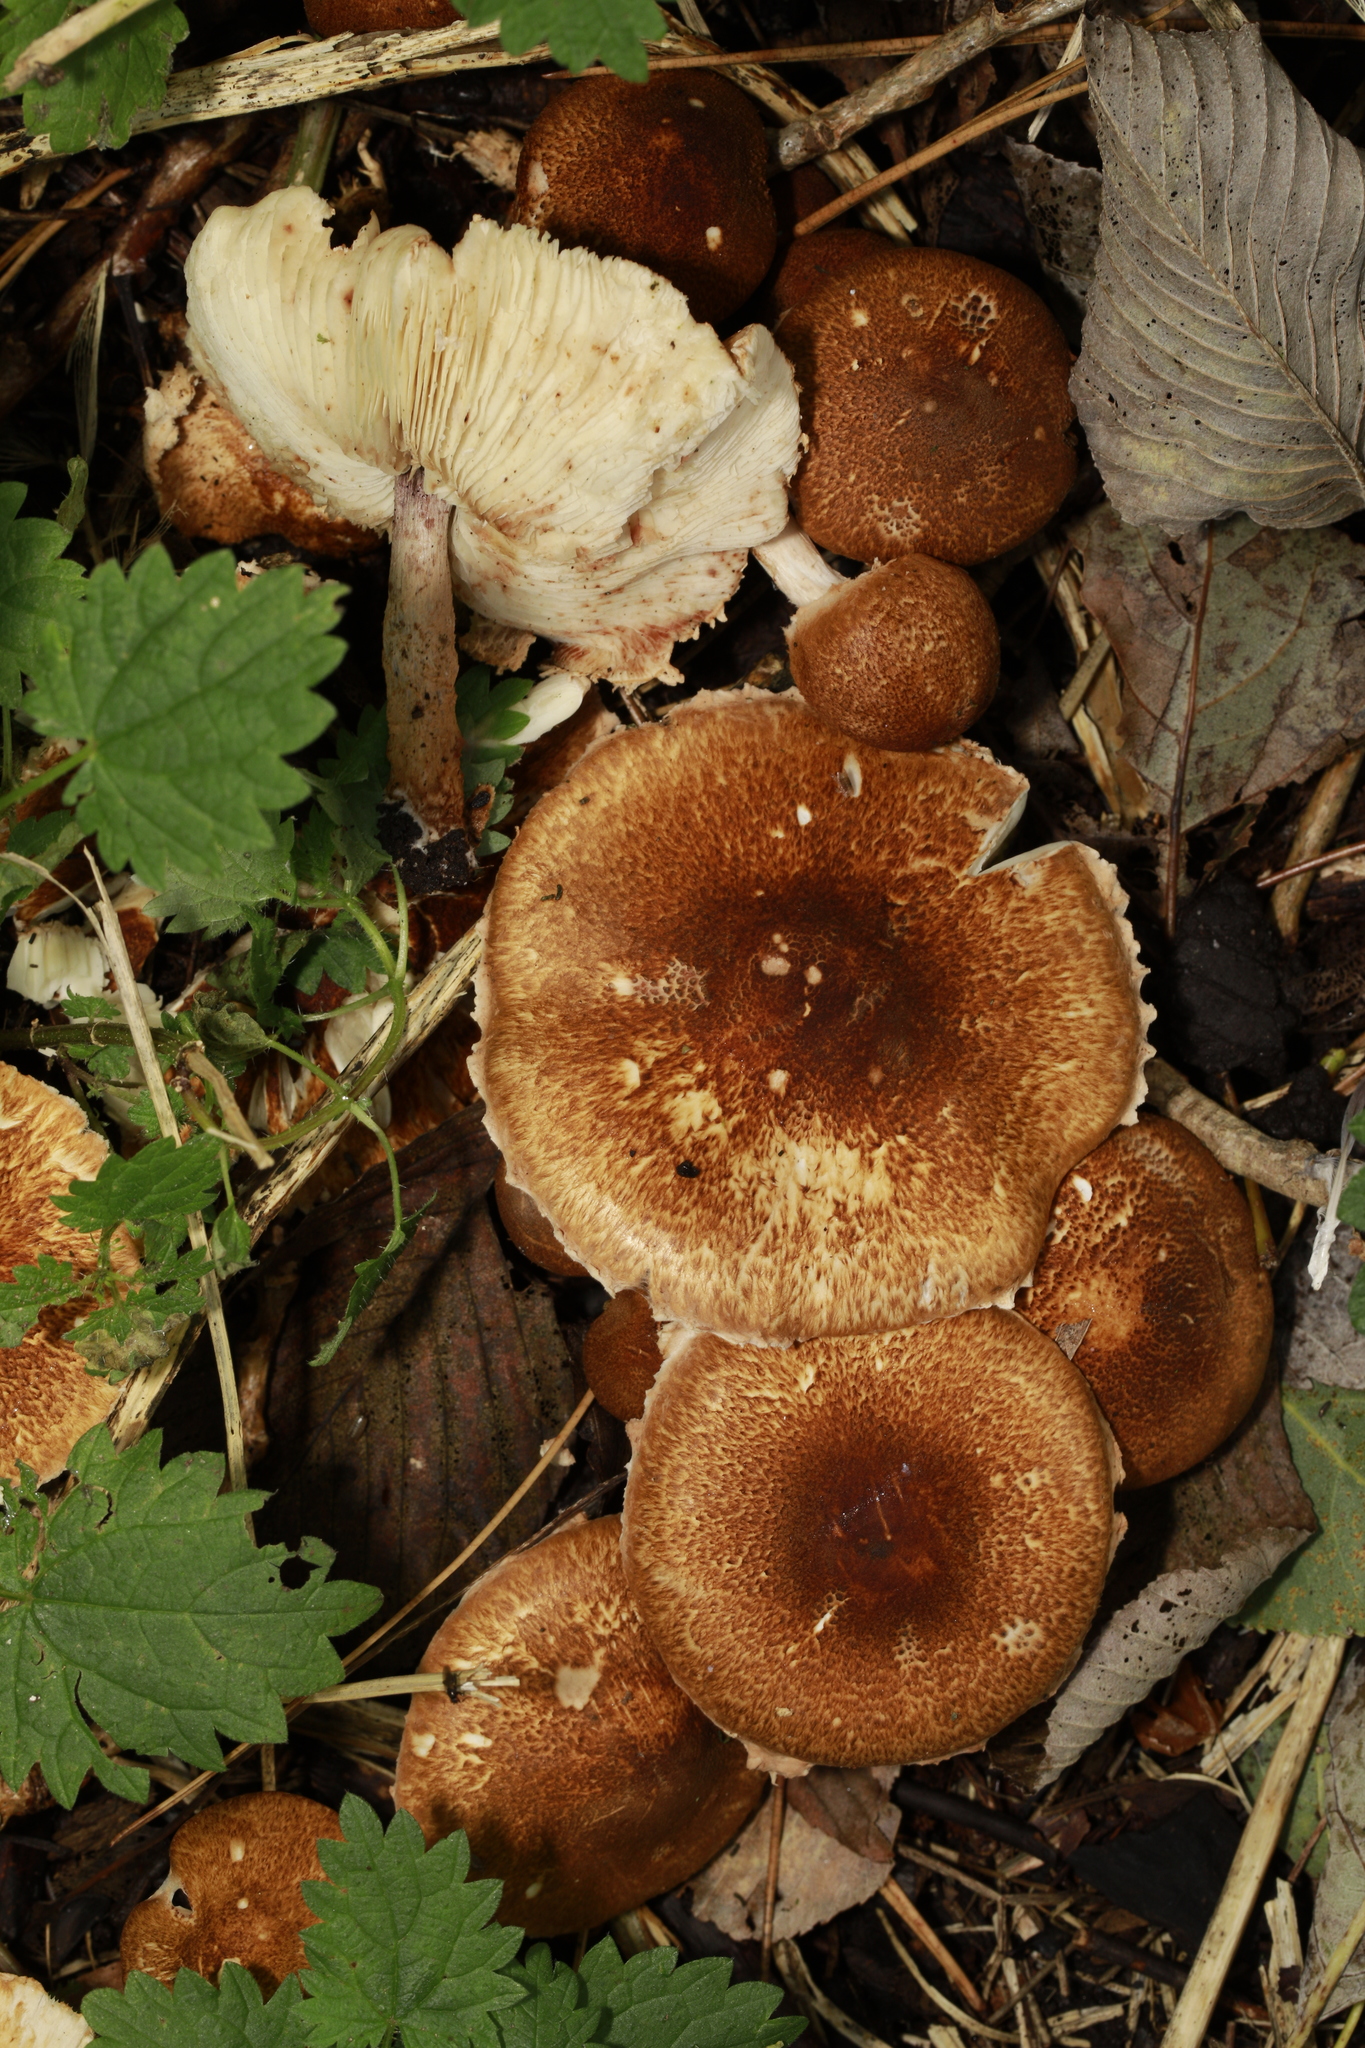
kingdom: Fungi
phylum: Basidiomycota
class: Agaricomycetes
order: Agaricales
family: Agaricaceae
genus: Lepiota
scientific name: Lepiota boudieri
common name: Girdled dapperling
